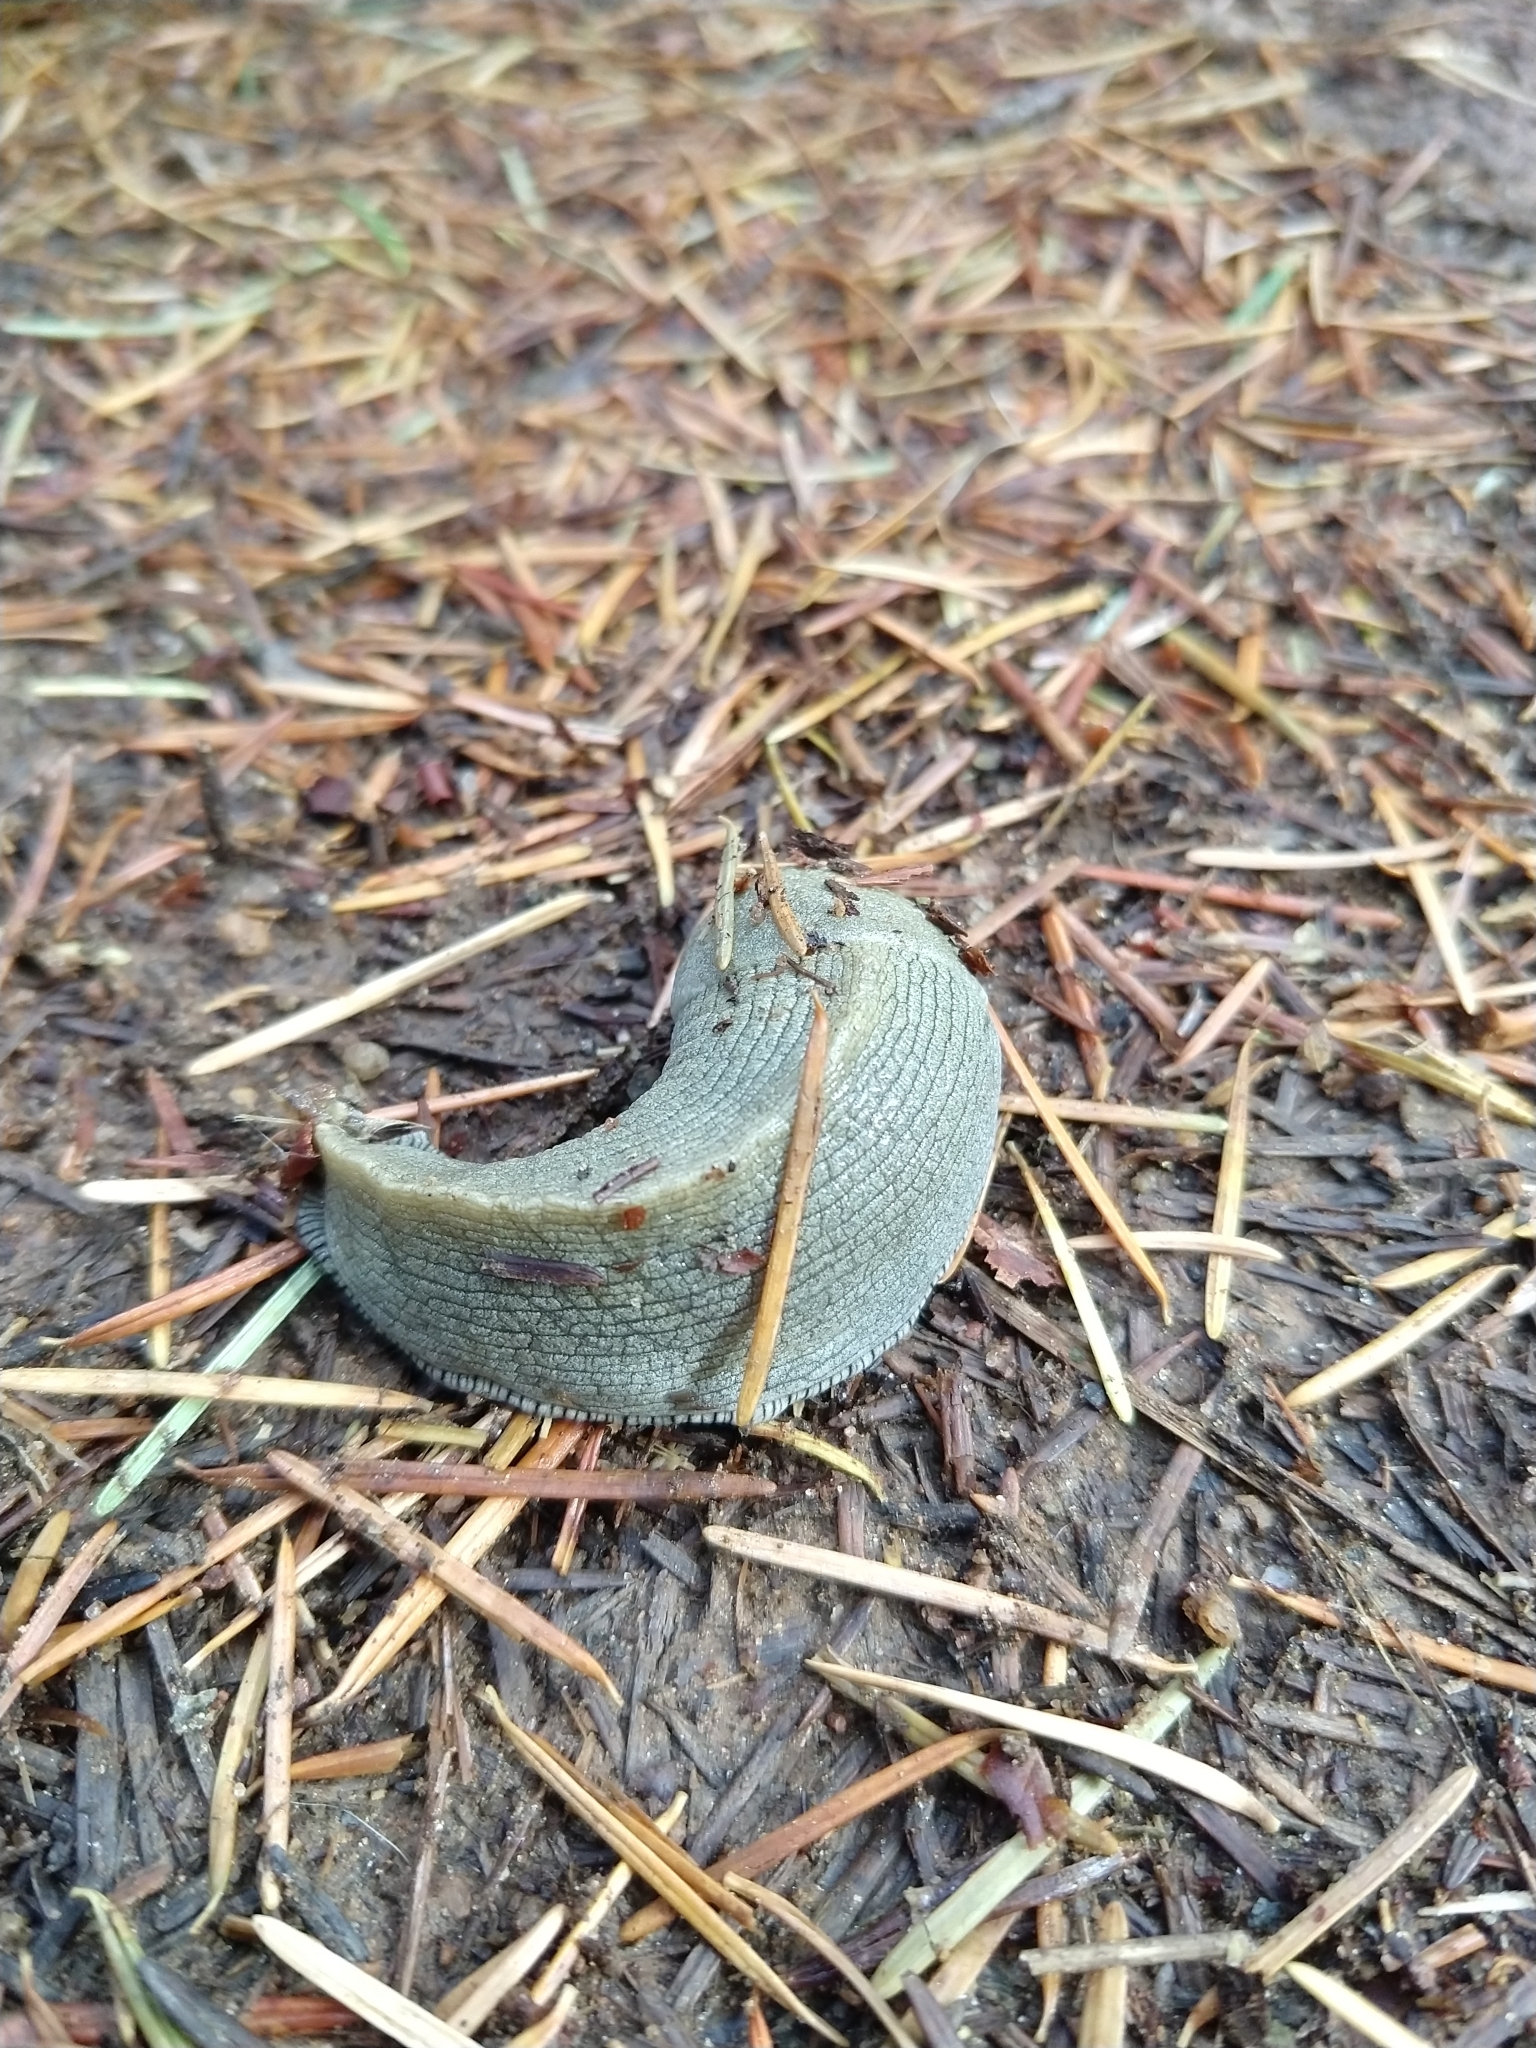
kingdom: Animalia
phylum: Mollusca
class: Gastropoda
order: Stylommatophora
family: Ariolimacidae
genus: Ariolimax
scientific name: Ariolimax buttoni
